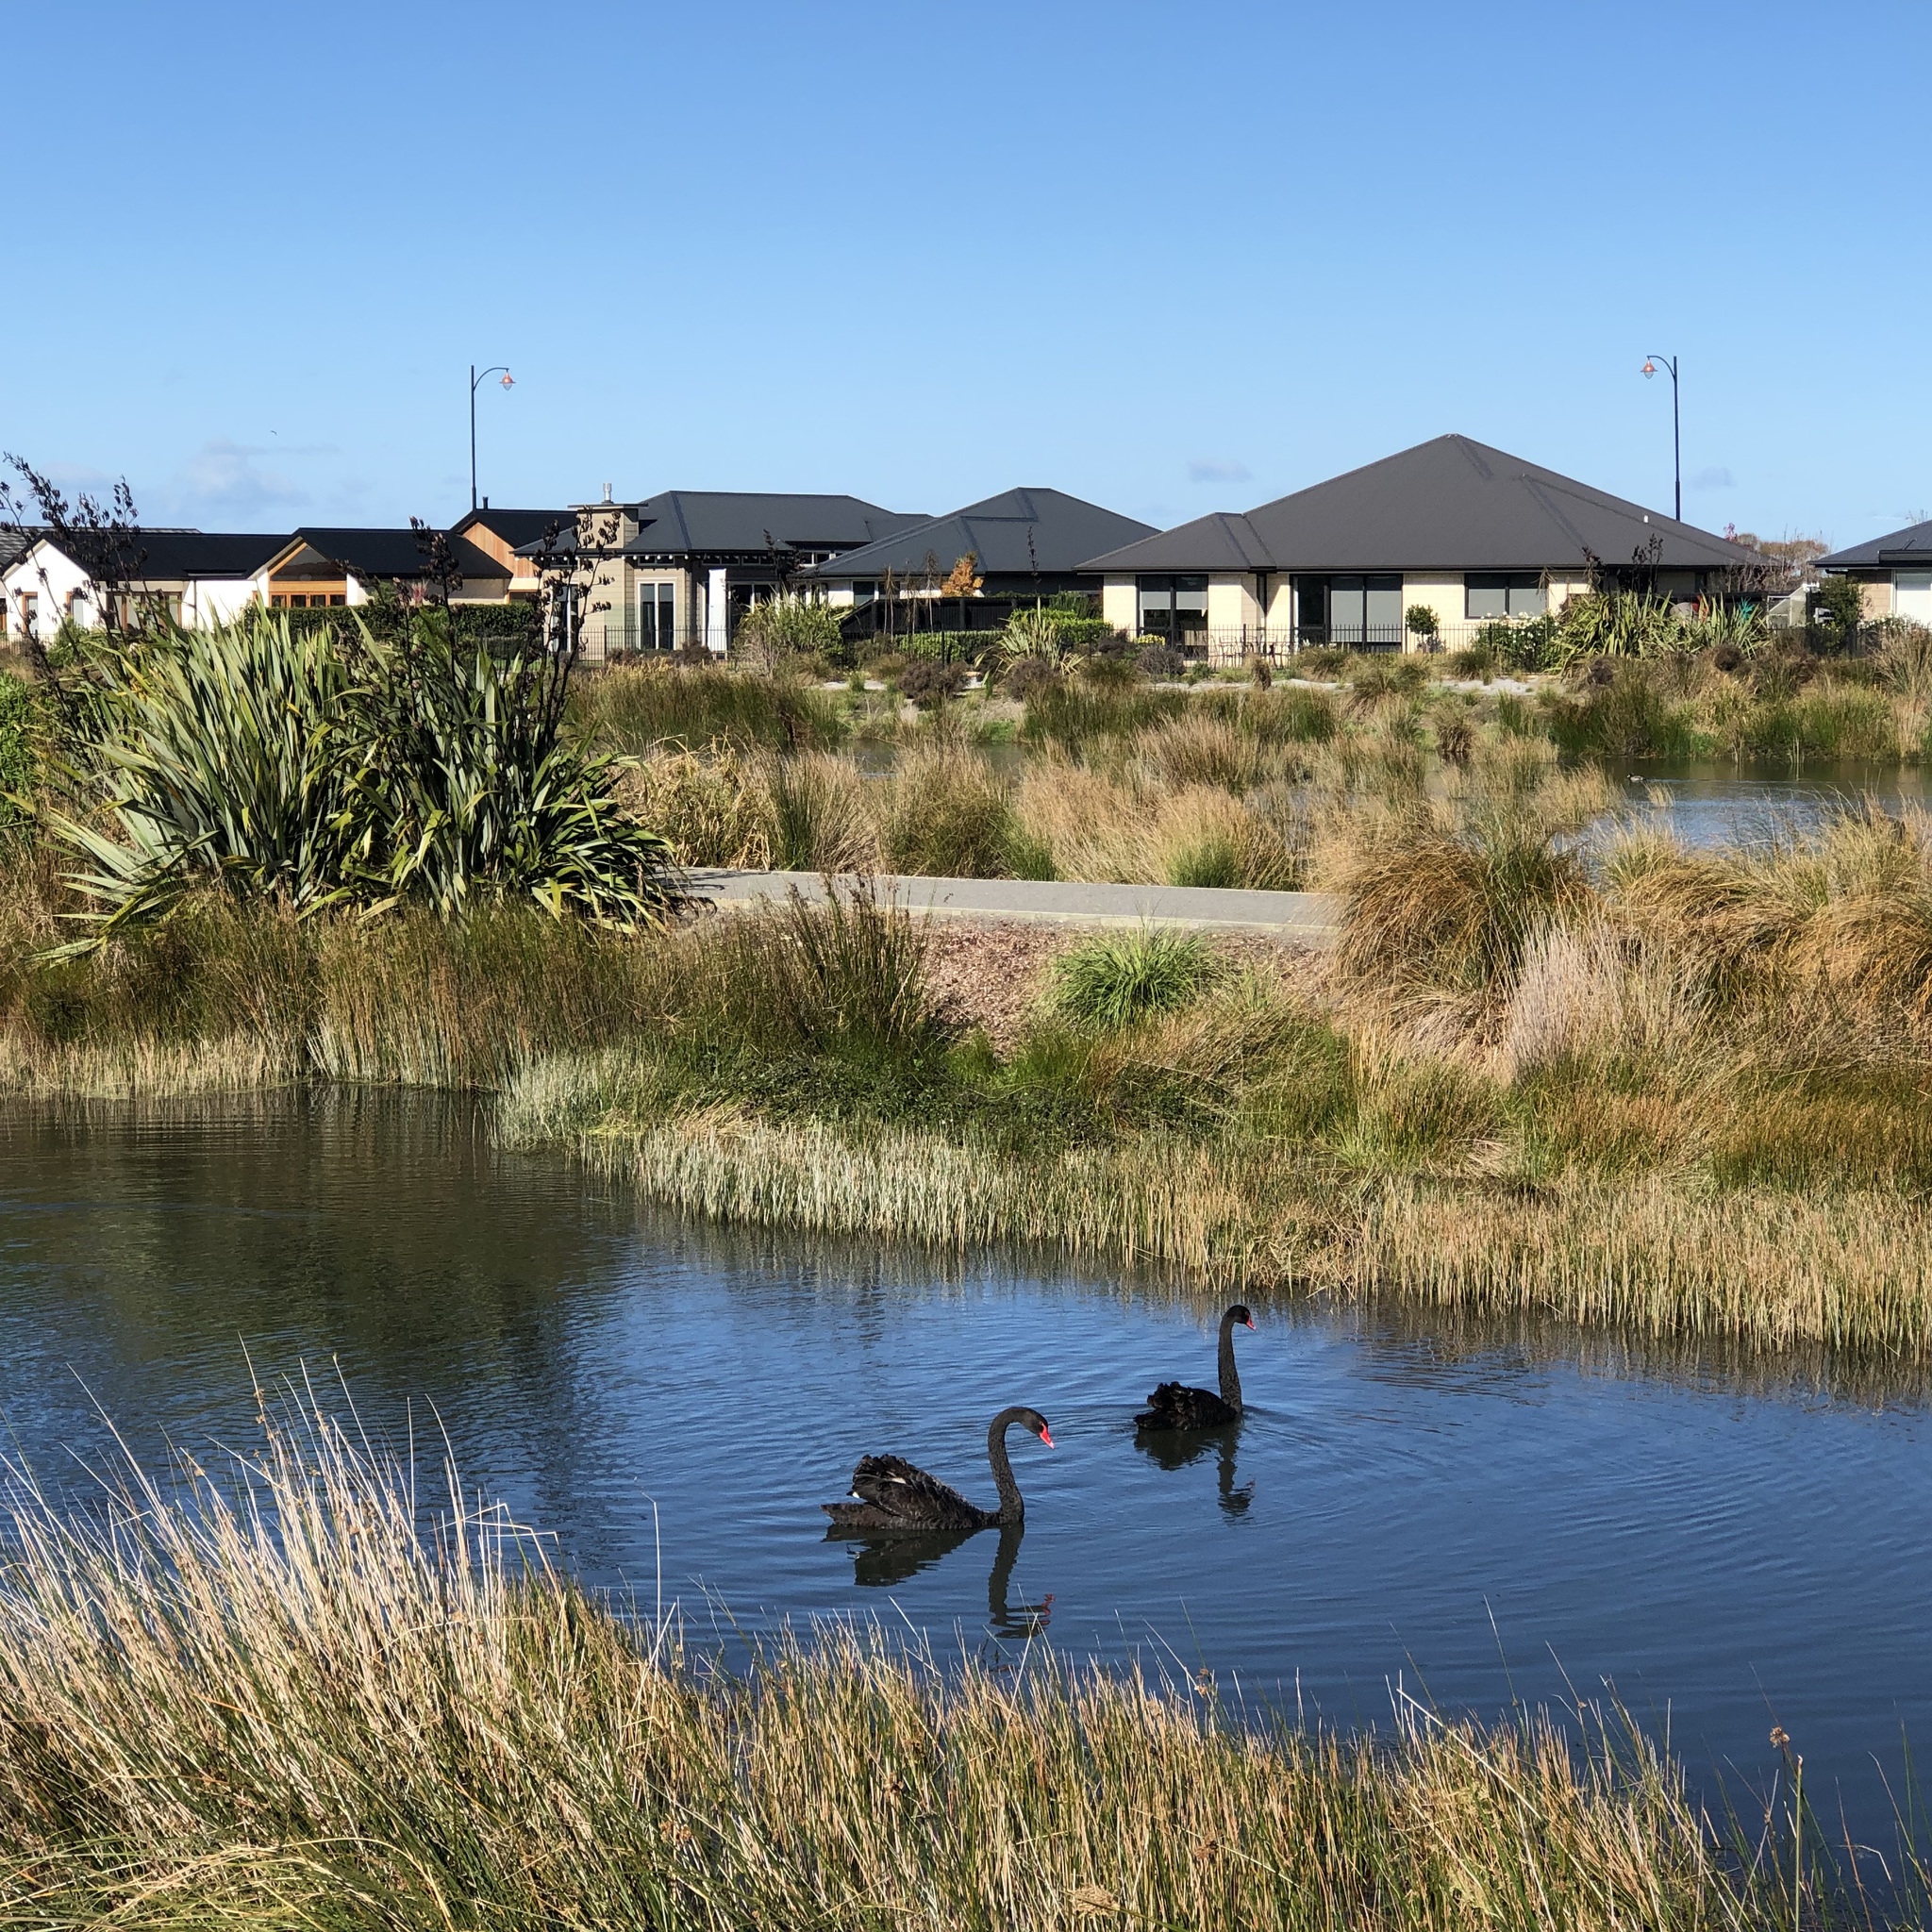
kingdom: Animalia
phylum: Chordata
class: Aves
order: Anseriformes
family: Anatidae
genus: Cygnus
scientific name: Cygnus atratus
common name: Black swan
